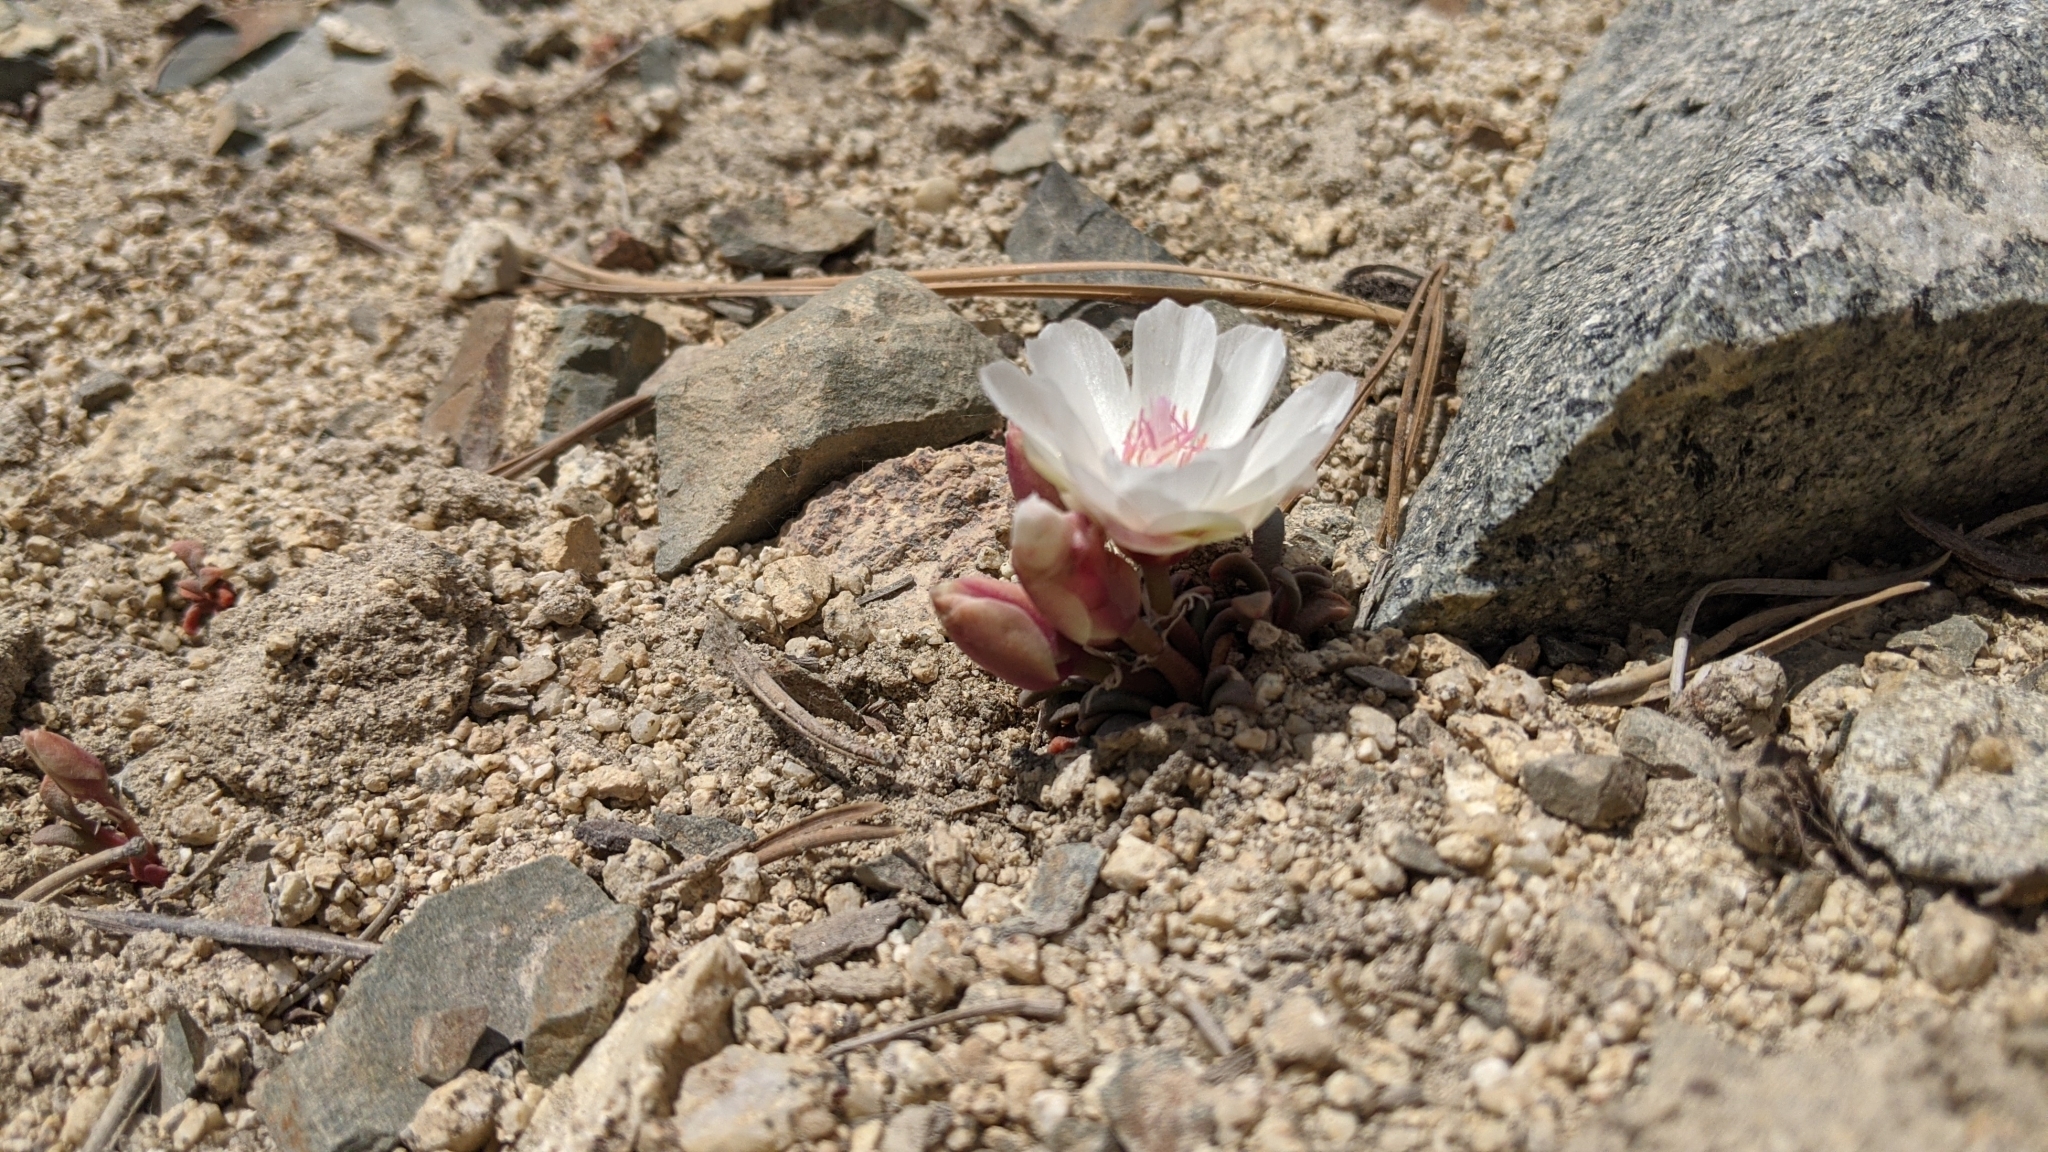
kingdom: Plantae
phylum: Tracheophyta
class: Magnoliopsida
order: Caryophyllales
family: Montiaceae
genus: Lewisia
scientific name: Lewisia rediviva
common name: Bitter-root
